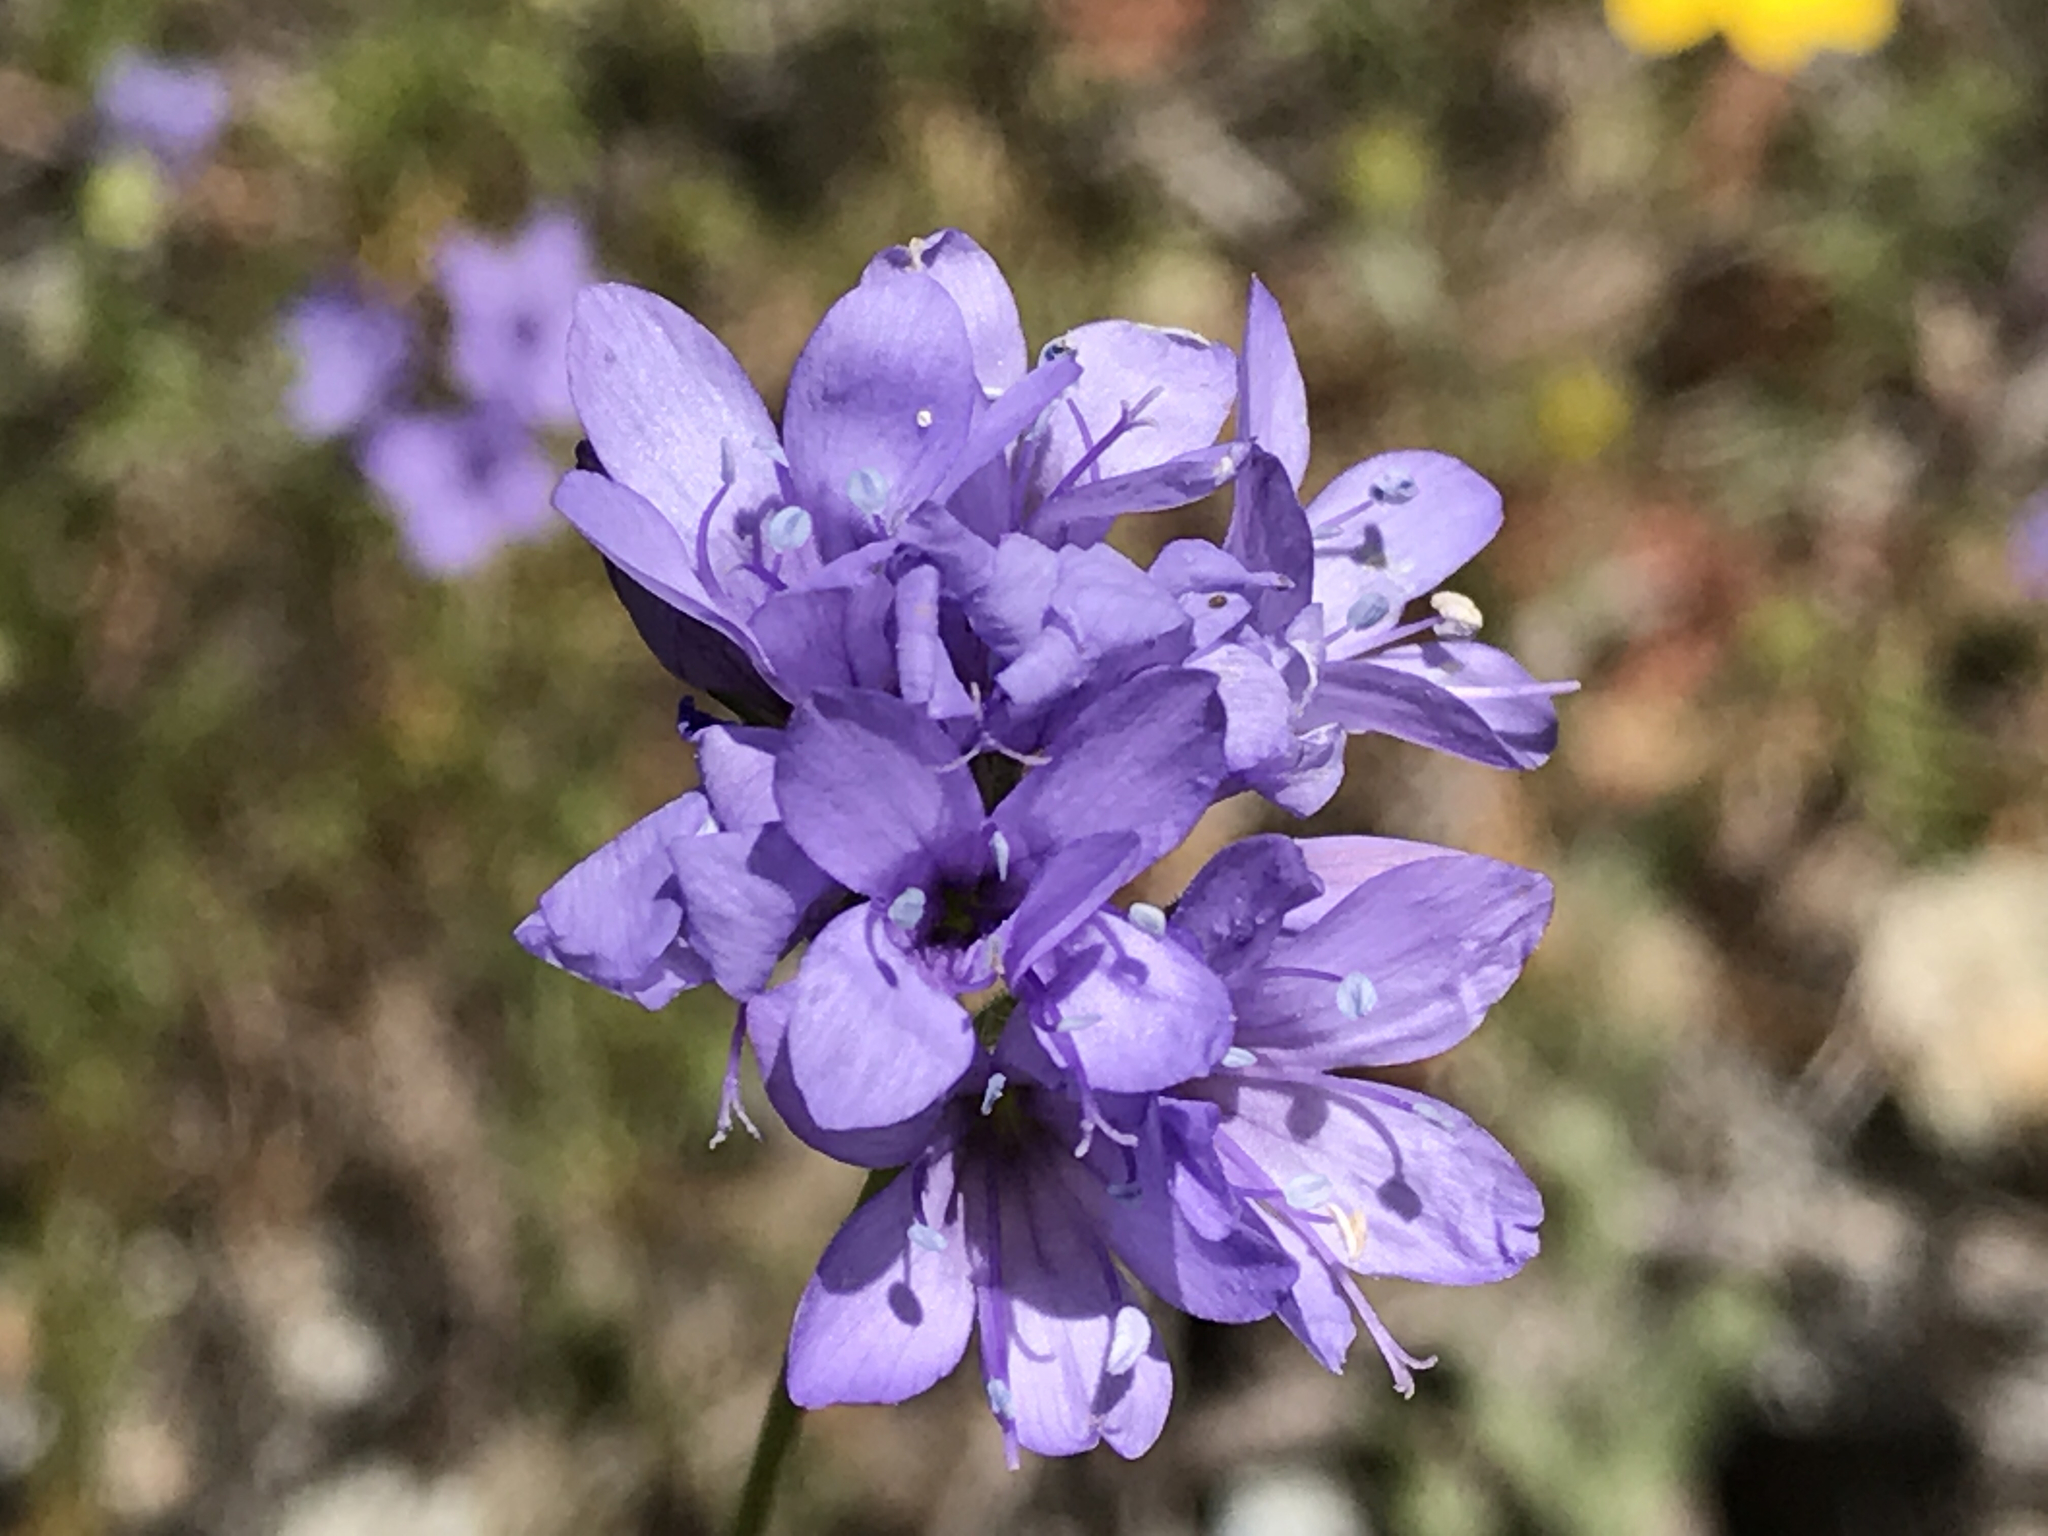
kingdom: Plantae
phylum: Tracheophyta
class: Magnoliopsida
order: Ericales
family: Polemoniaceae
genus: Gilia
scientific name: Gilia achilleifolia
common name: California gily-flower
